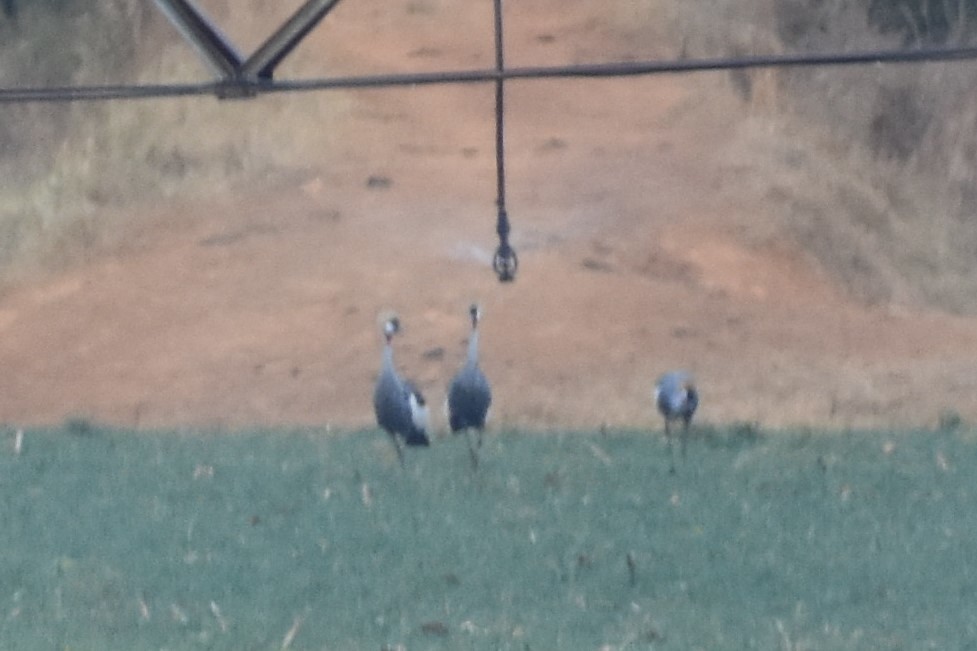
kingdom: Animalia
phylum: Chordata
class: Aves
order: Gruiformes
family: Gruidae
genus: Balearica
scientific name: Balearica regulorum
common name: Grey crowned crane
